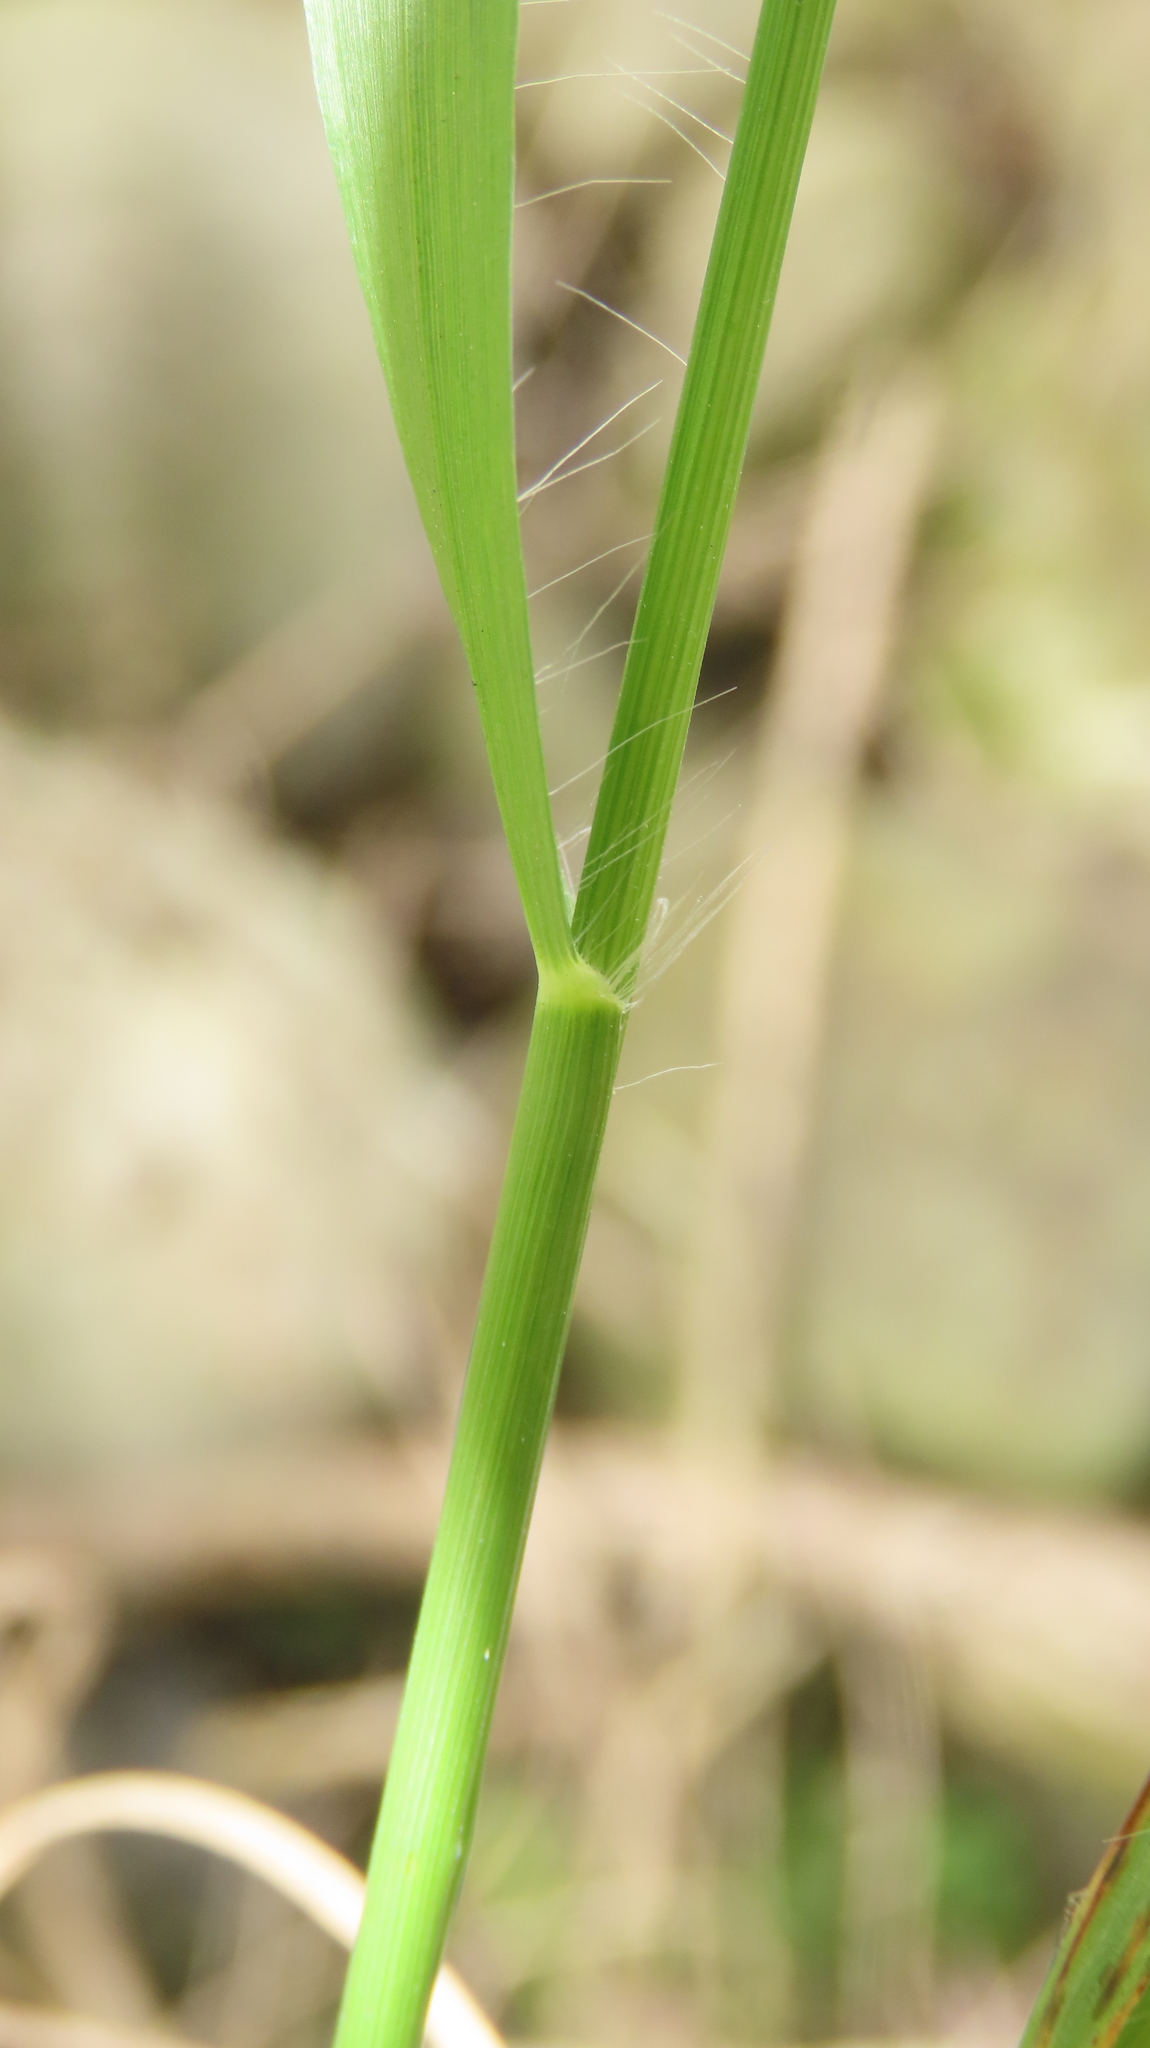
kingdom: Plantae
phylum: Tracheophyta
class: Liliopsida
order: Poales
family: Poaceae
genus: Eragrostis
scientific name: Eragrostis ciliaris
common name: Gophertail lovegrass
